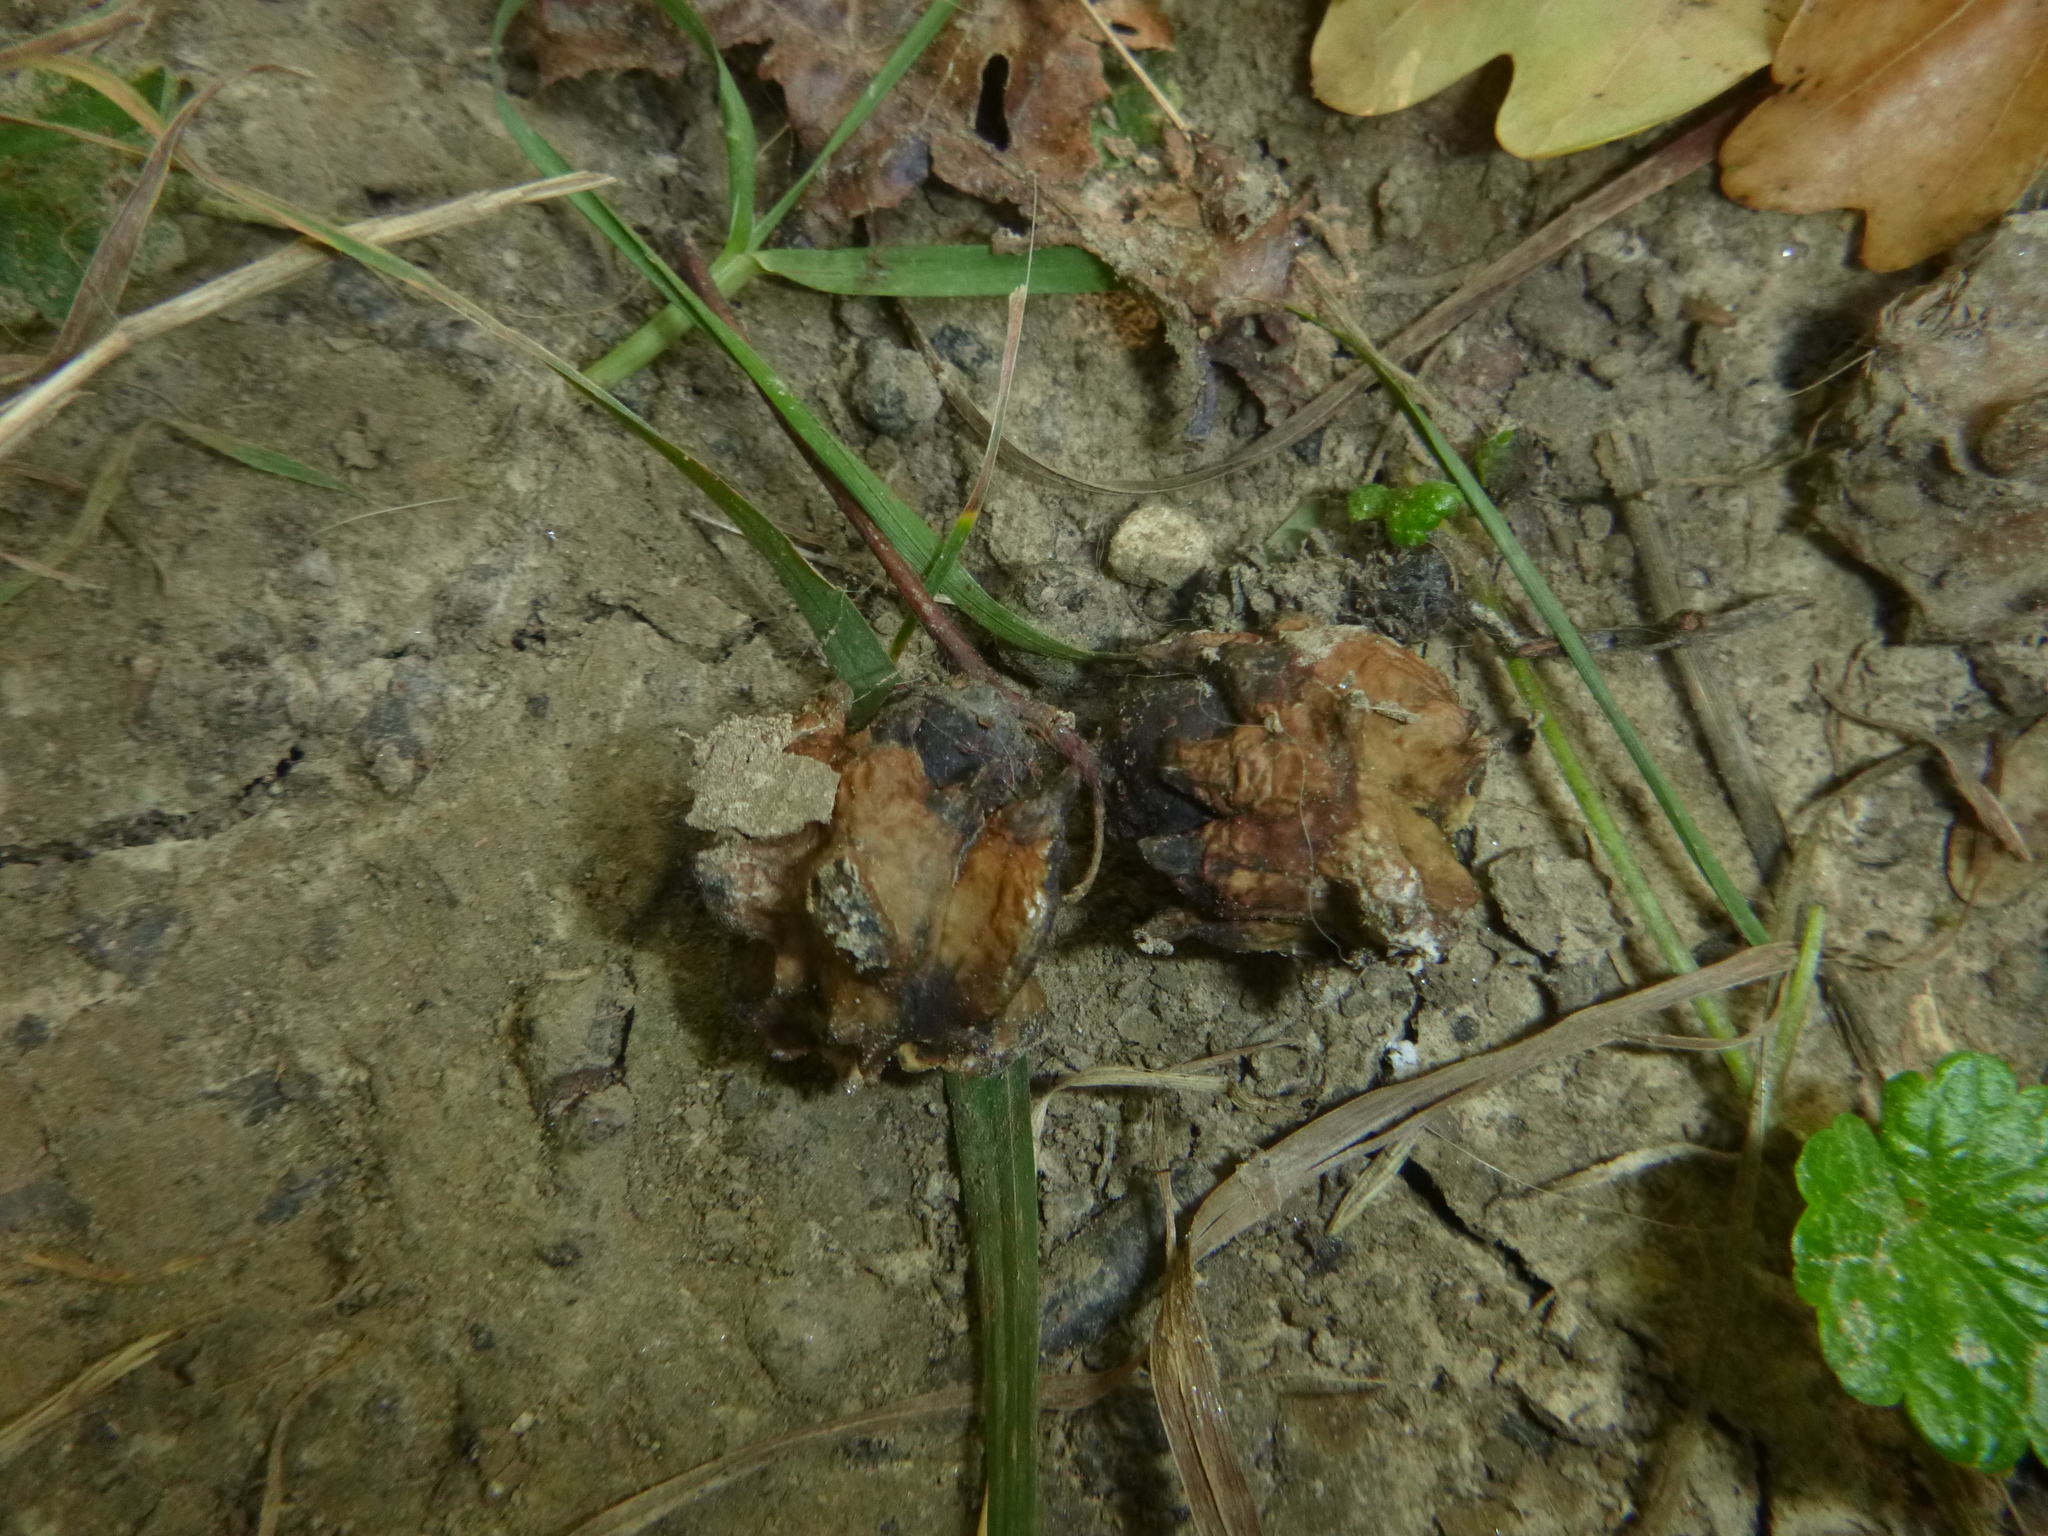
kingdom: Animalia
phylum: Arthropoda
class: Insecta
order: Hymenoptera
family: Cynipidae
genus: Andricus
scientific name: Andricus quercuscalicis
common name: Knopper gall
